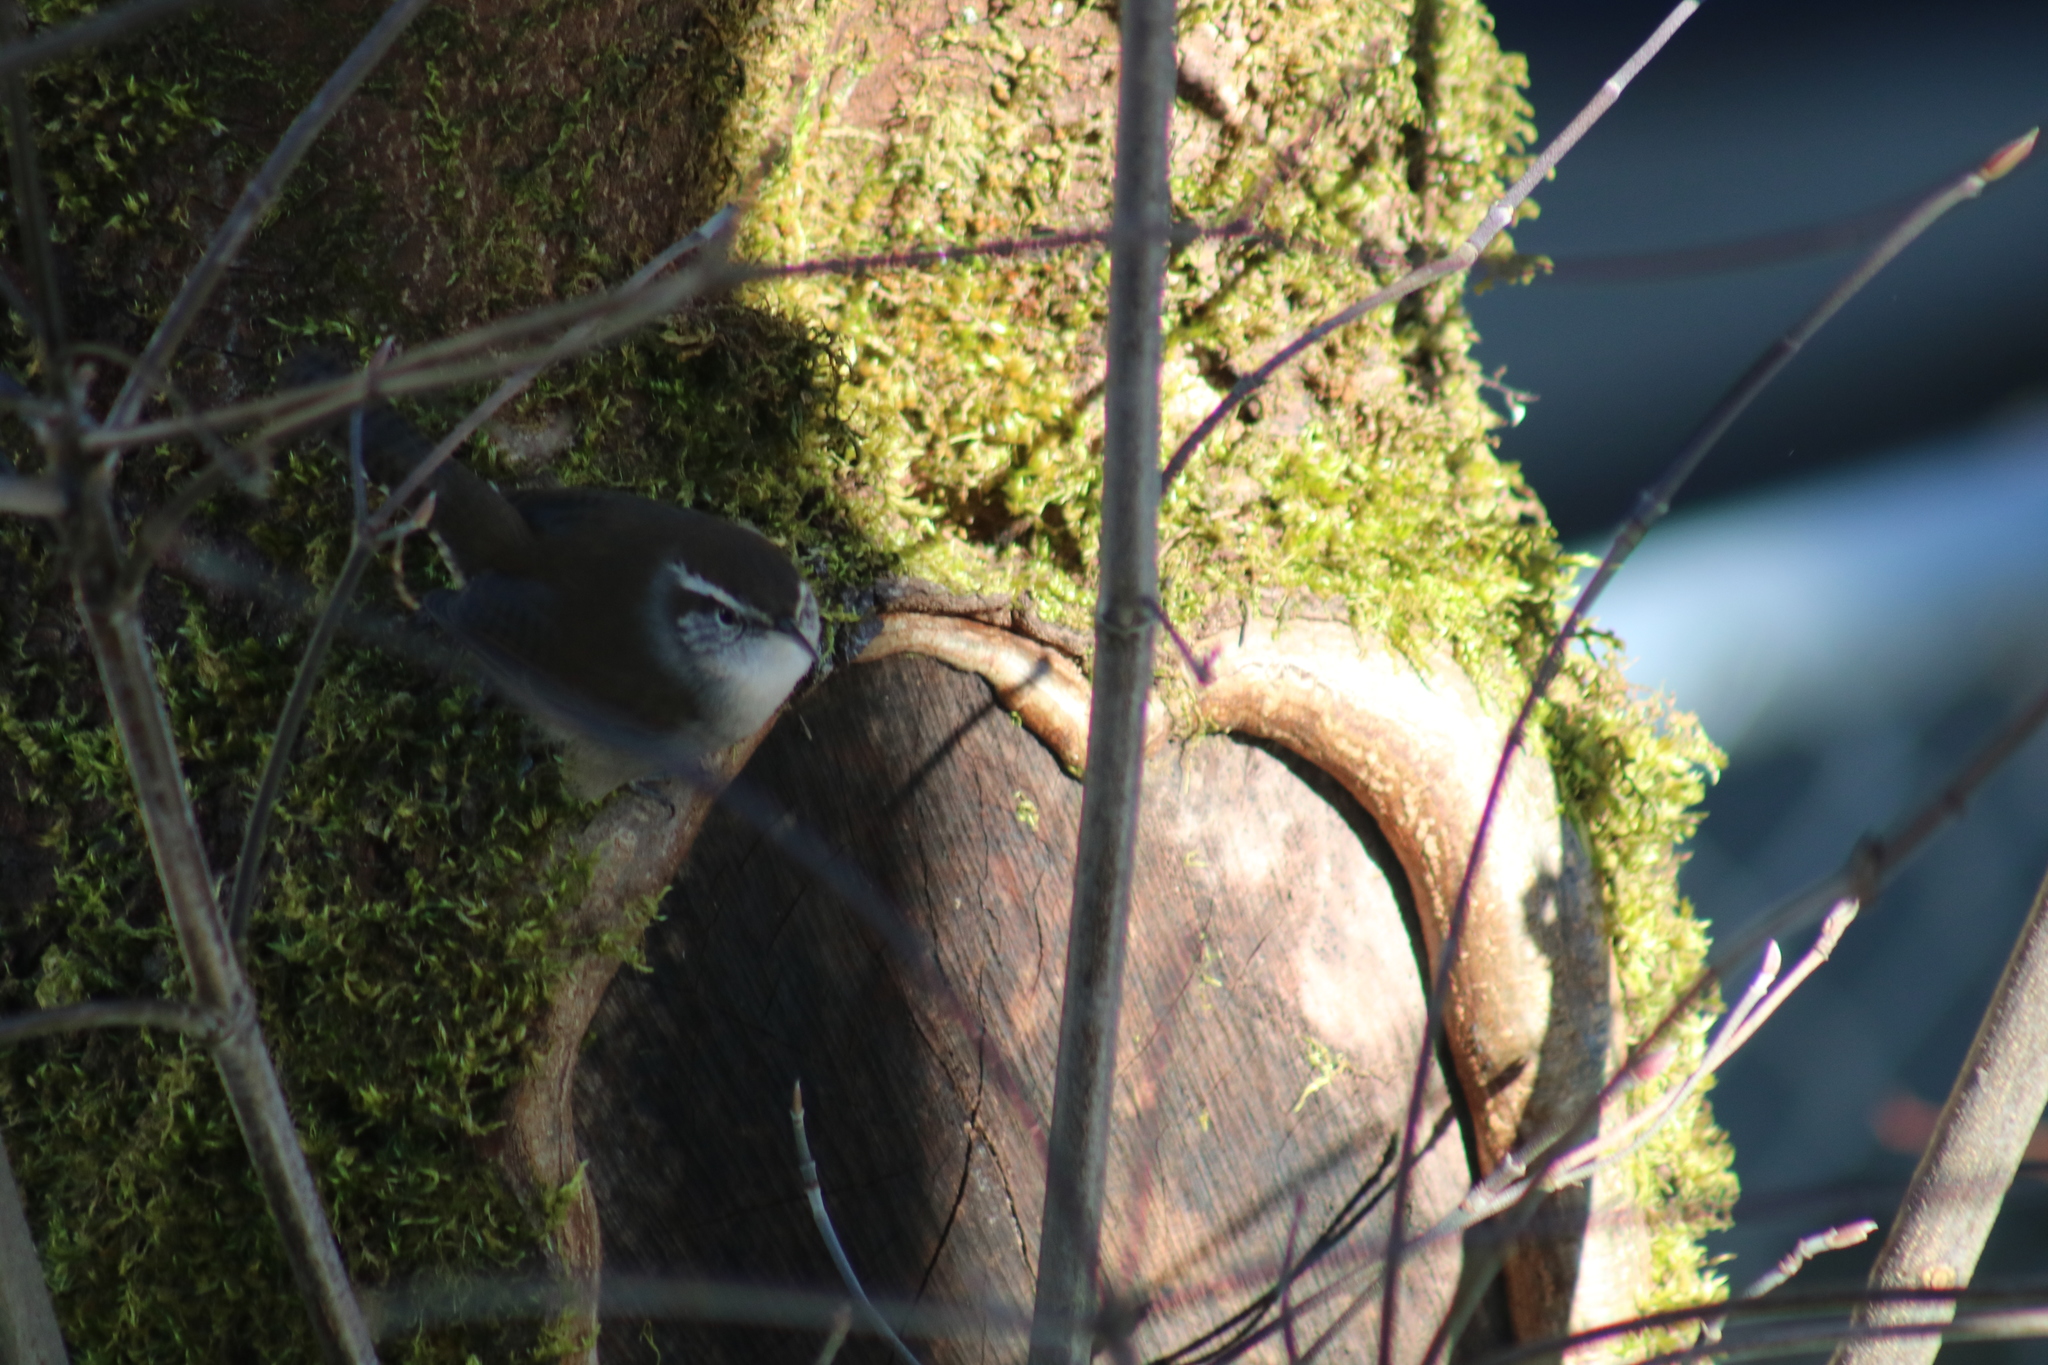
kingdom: Animalia
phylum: Chordata
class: Aves
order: Passeriformes
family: Troglodytidae
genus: Thryomanes
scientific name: Thryomanes bewickii
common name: Bewick's wren
